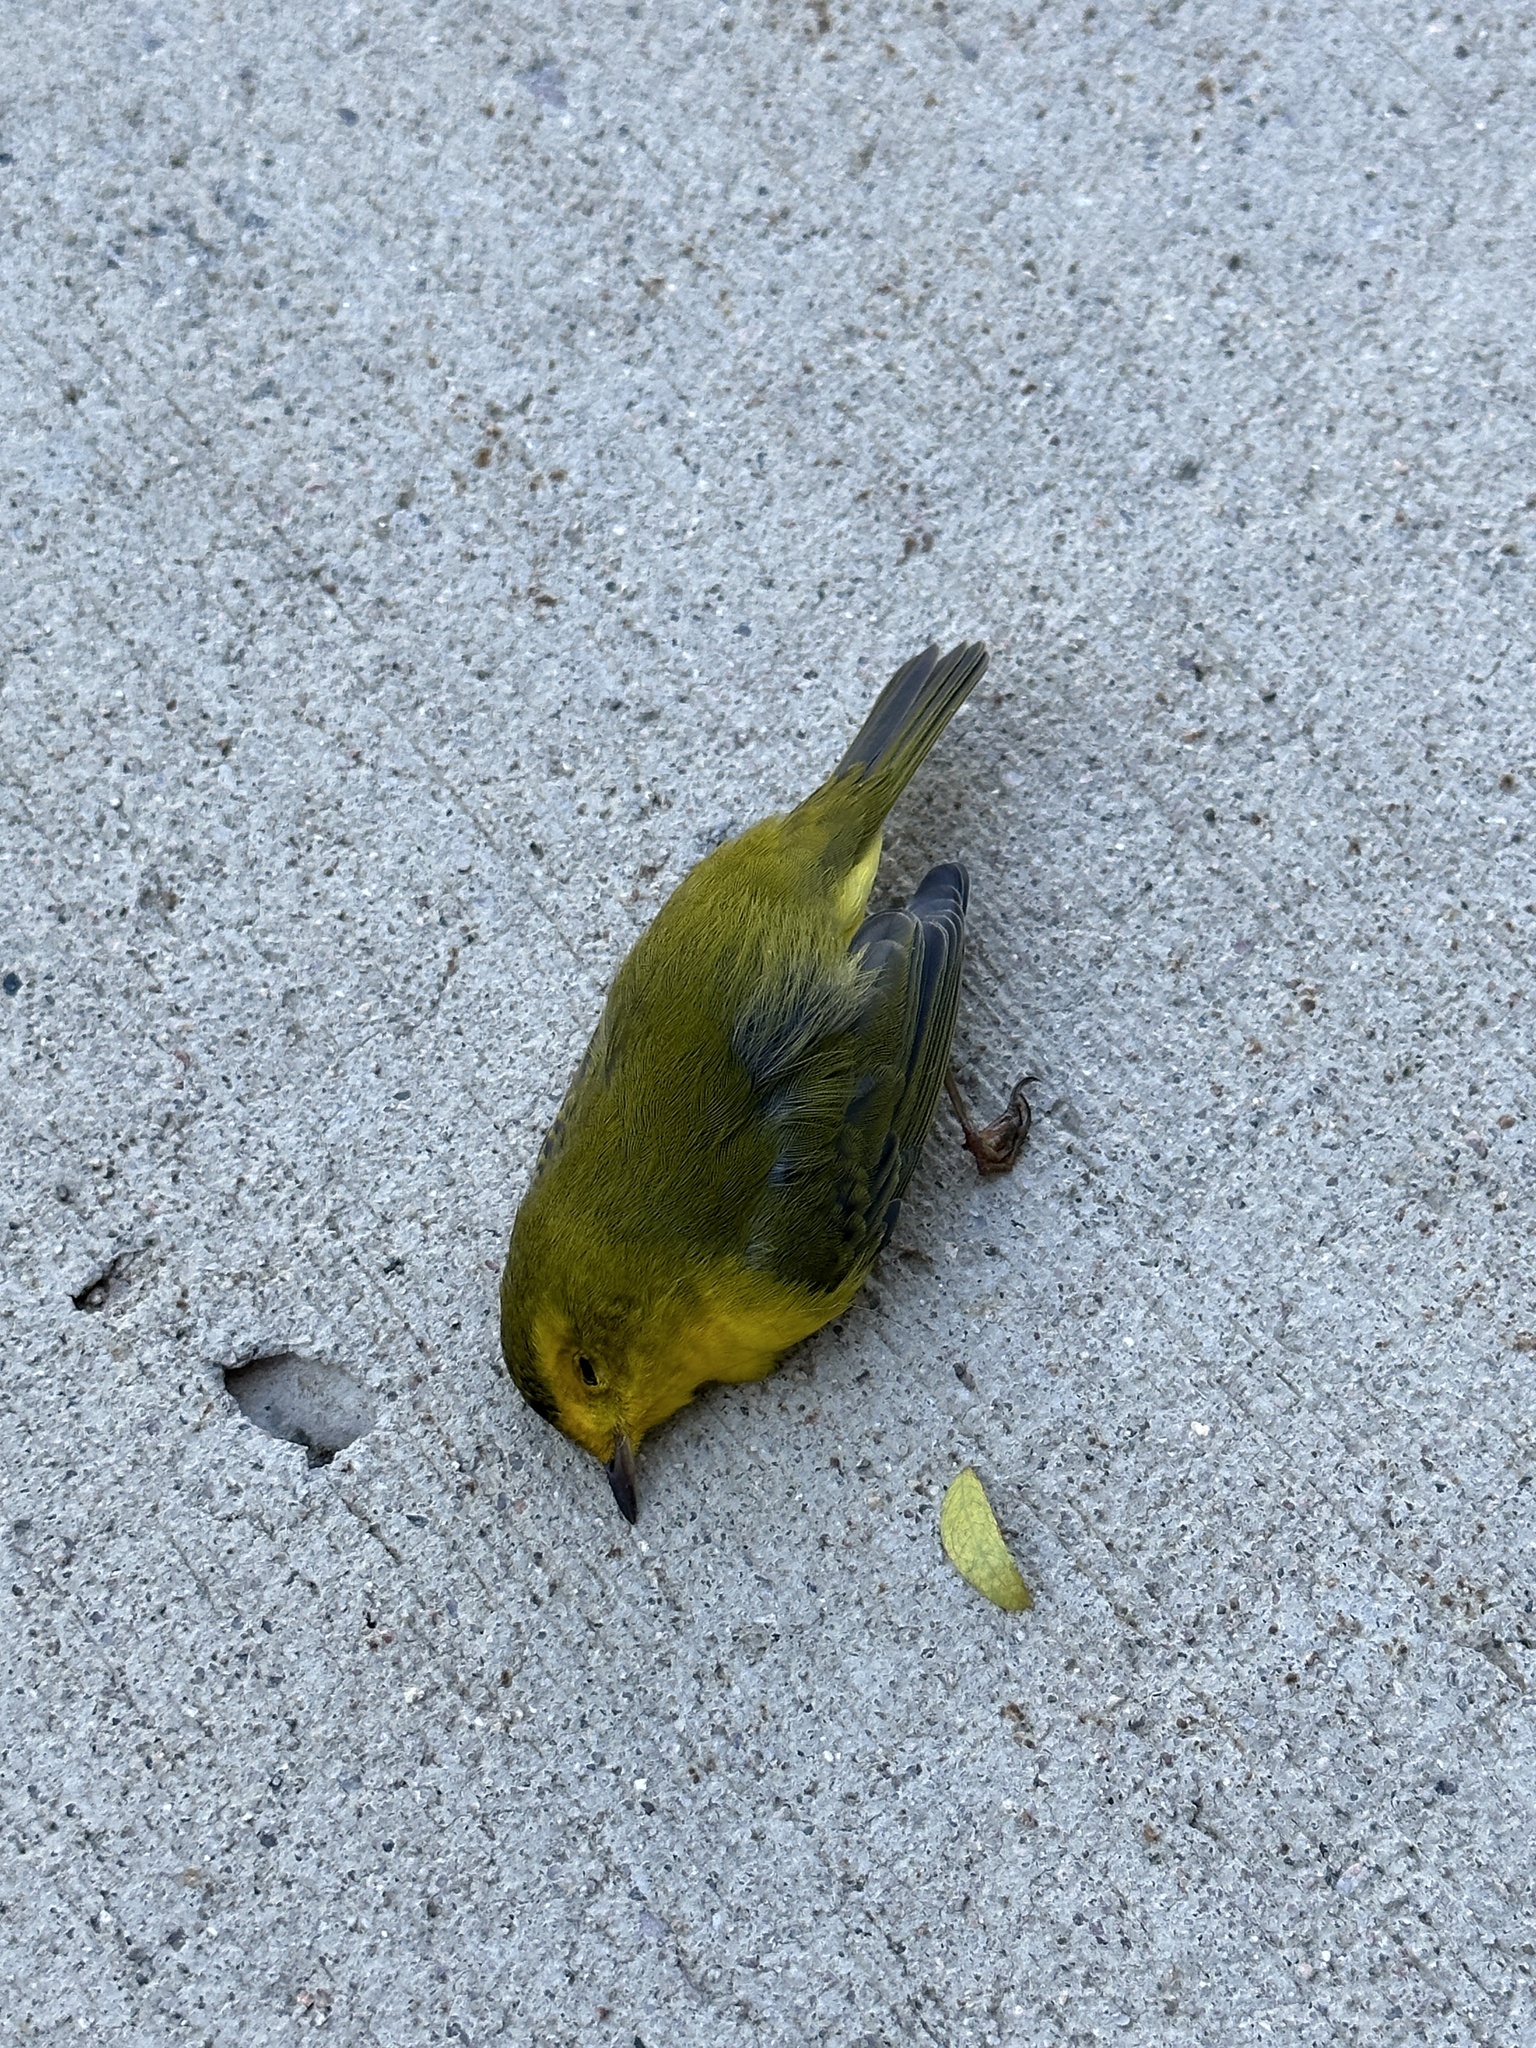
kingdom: Animalia
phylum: Chordata
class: Aves
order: Passeriformes
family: Parulidae
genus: Cardellina
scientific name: Cardellina pusilla
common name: Wilson's warbler
